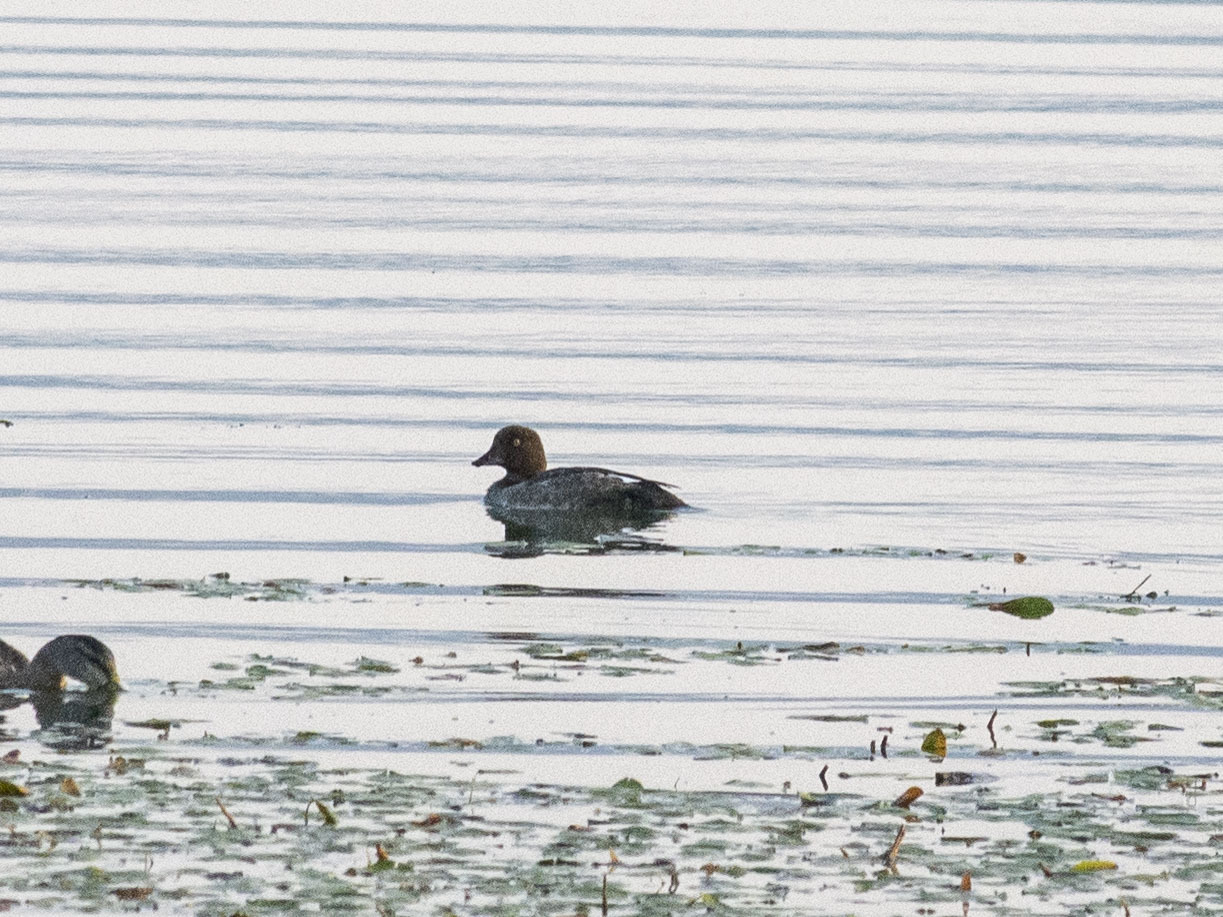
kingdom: Animalia
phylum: Chordata
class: Aves
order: Anseriformes
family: Anatidae
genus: Bucephala
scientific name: Bucephala clangula
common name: Common goldeneye
